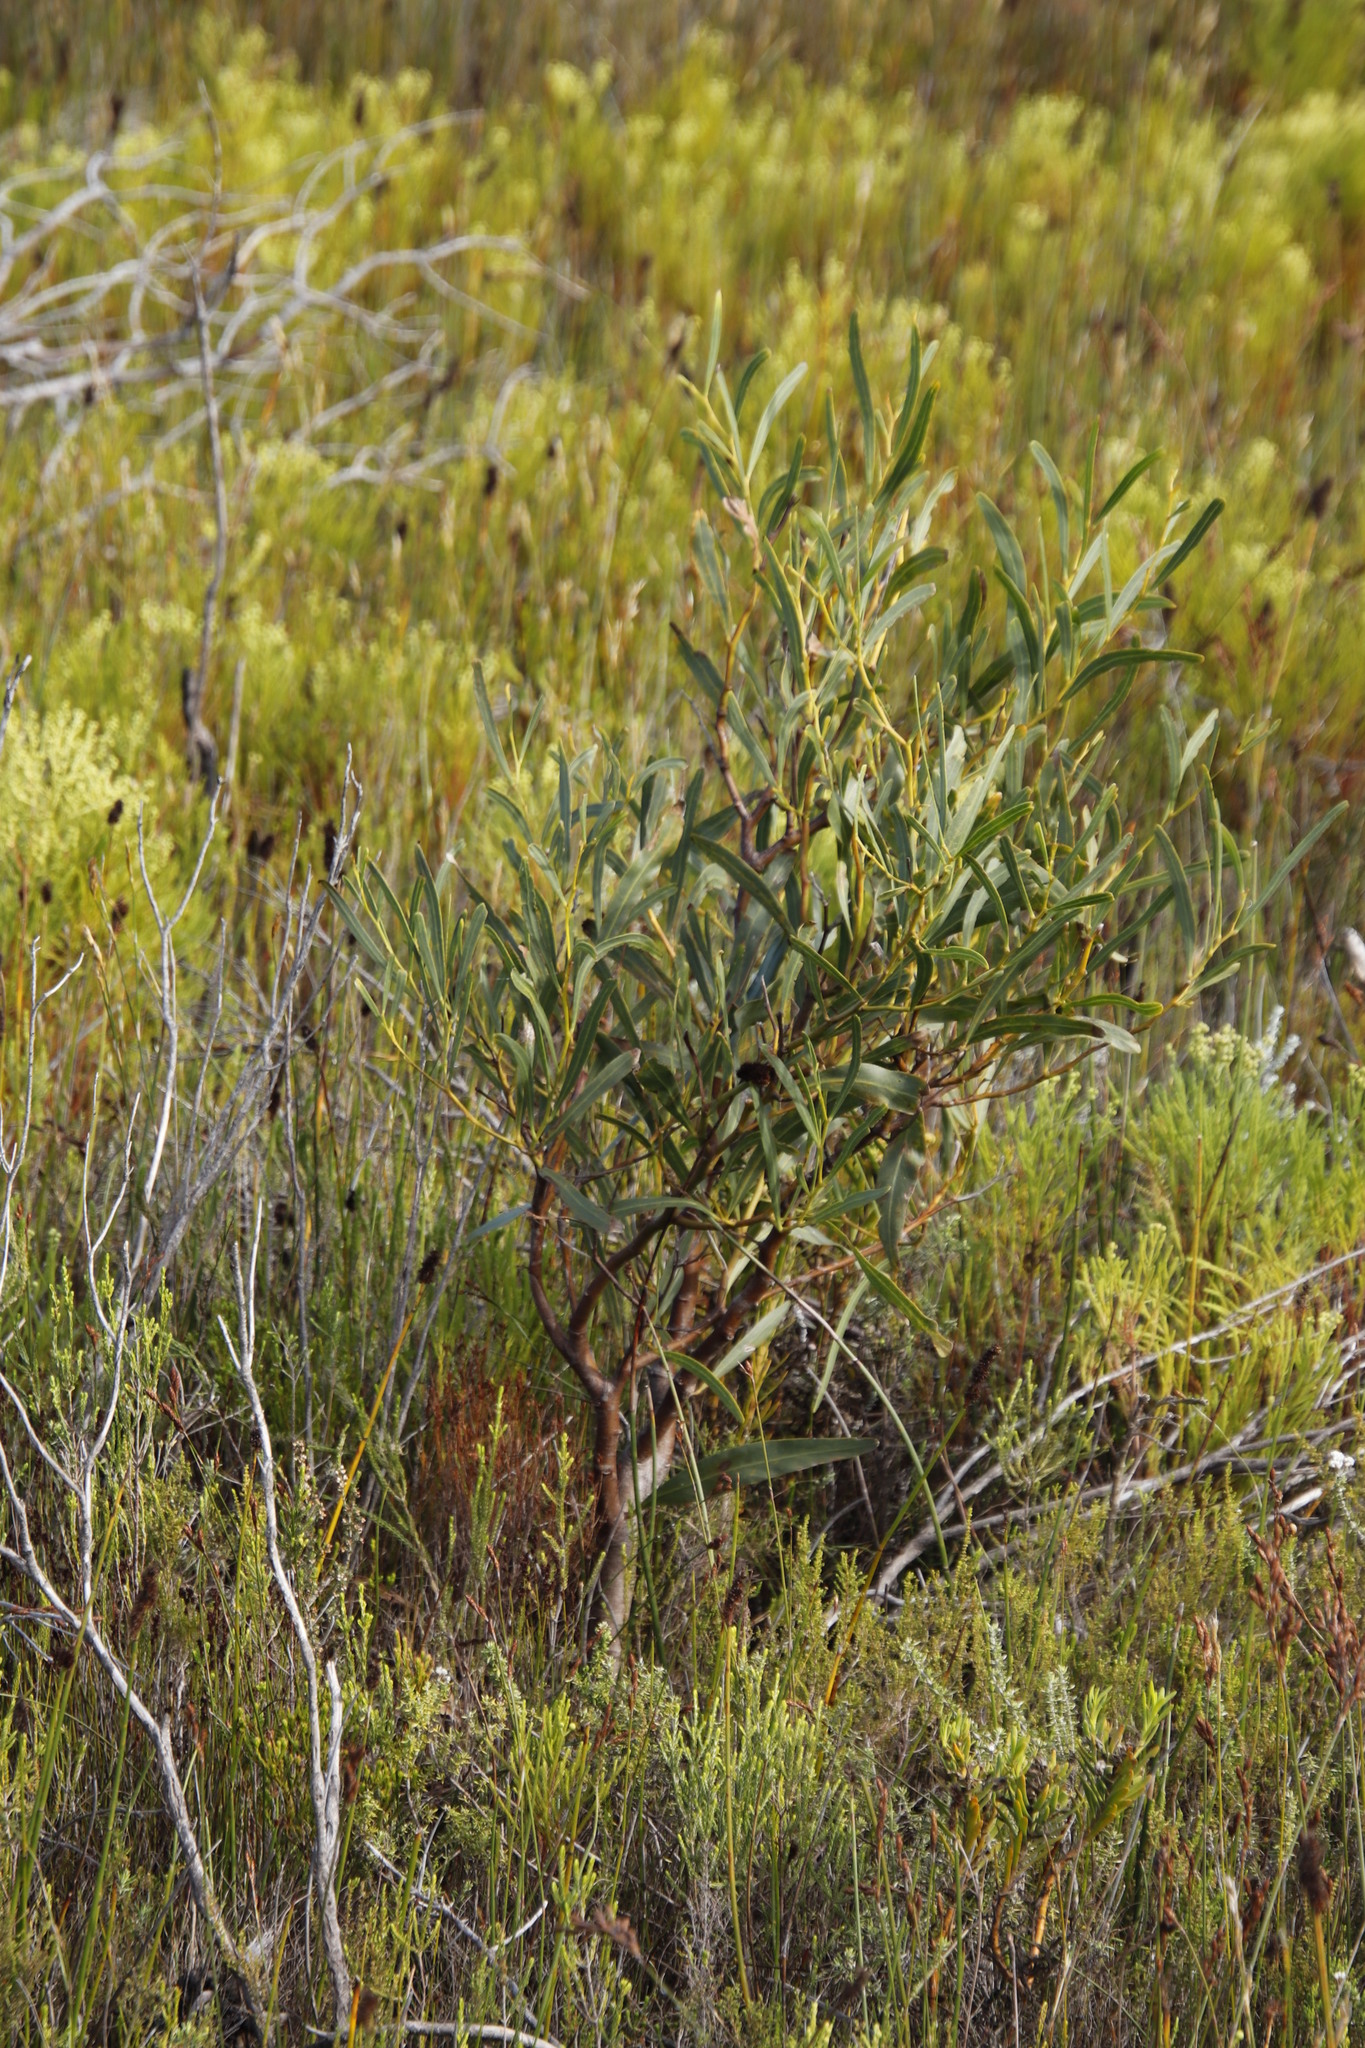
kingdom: Plantae
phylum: Tracheophyta
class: Magnoliopsida
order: Fabales
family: Fabaceae
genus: Acacia
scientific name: Acacia saligna
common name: Orange wattle
